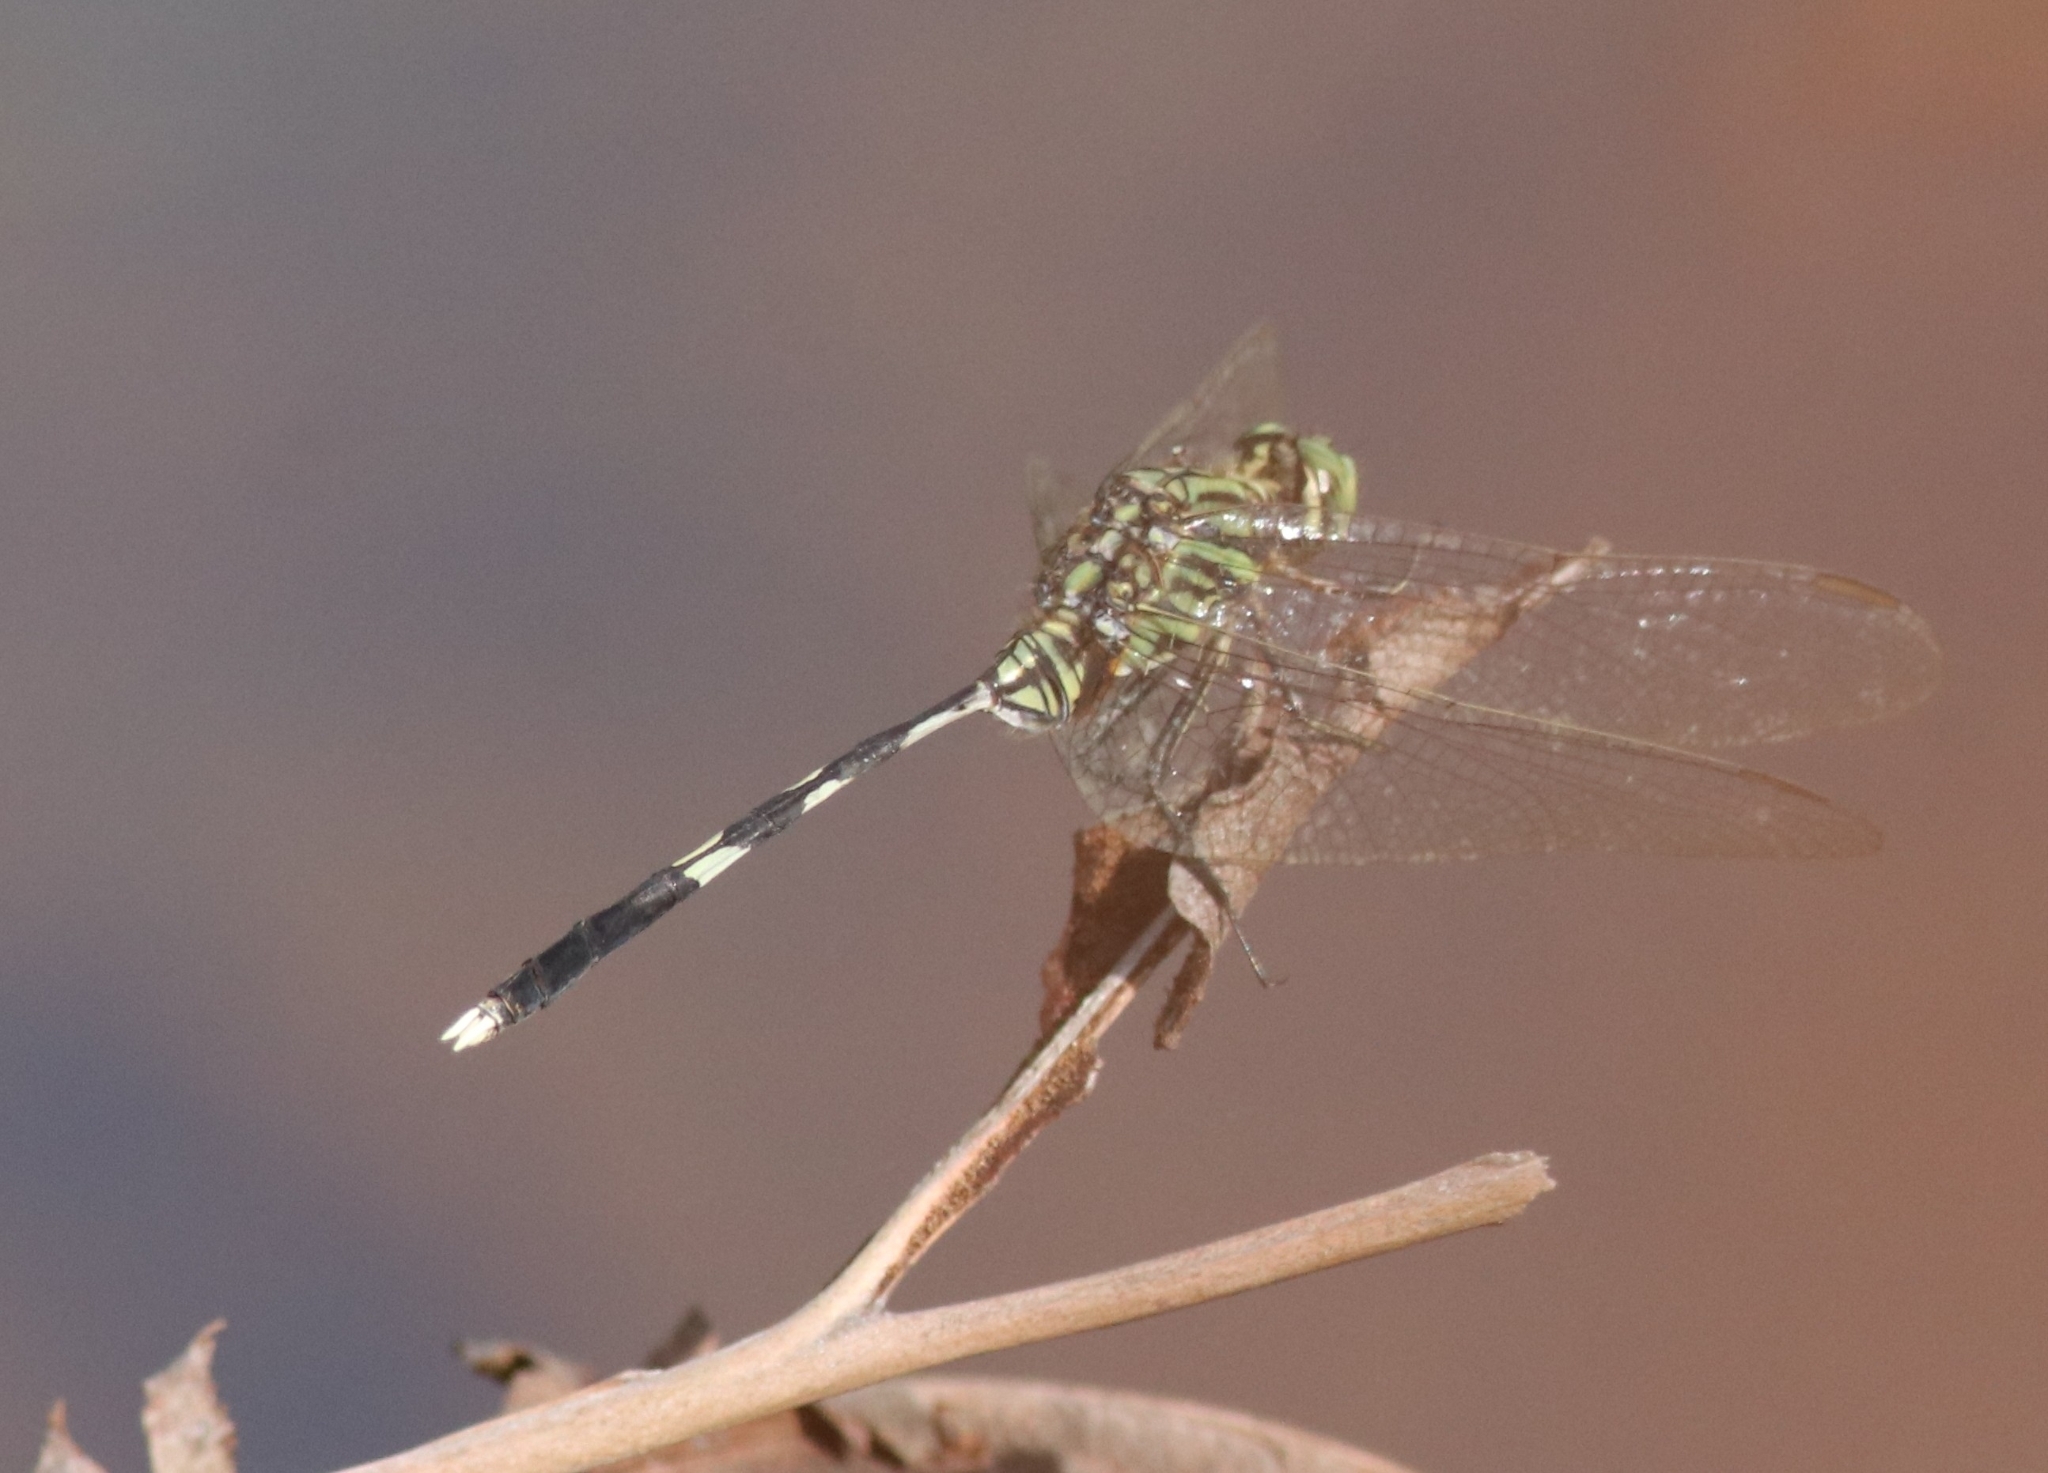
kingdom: Animalia
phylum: Arthropoda
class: Insecta
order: Odonata
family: Libellulidae
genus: Orthetrum
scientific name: Orthetrum sabina
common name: Slender skimmer
